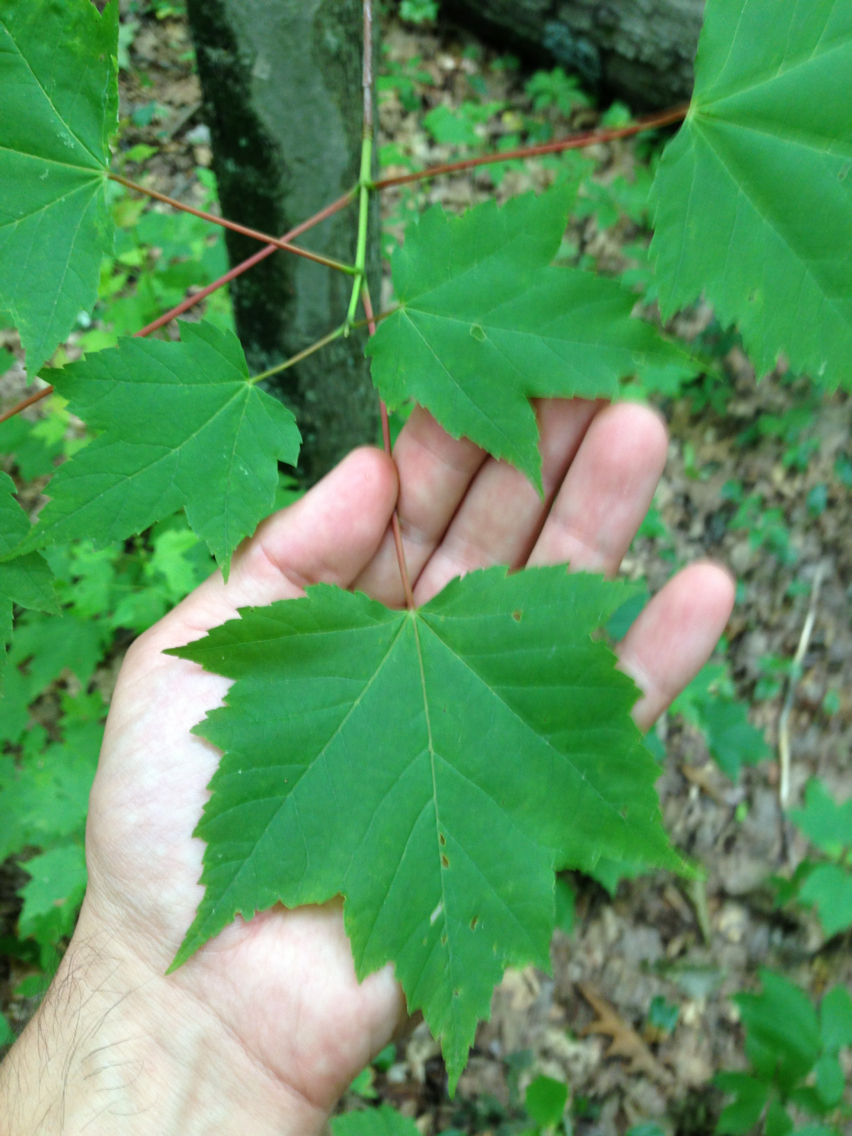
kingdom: Plantae
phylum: Tracheophyta
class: Magnoliopsida
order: Sapindales
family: Sapindaceae
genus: Acer
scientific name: Acer rubrum
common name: Red maple
